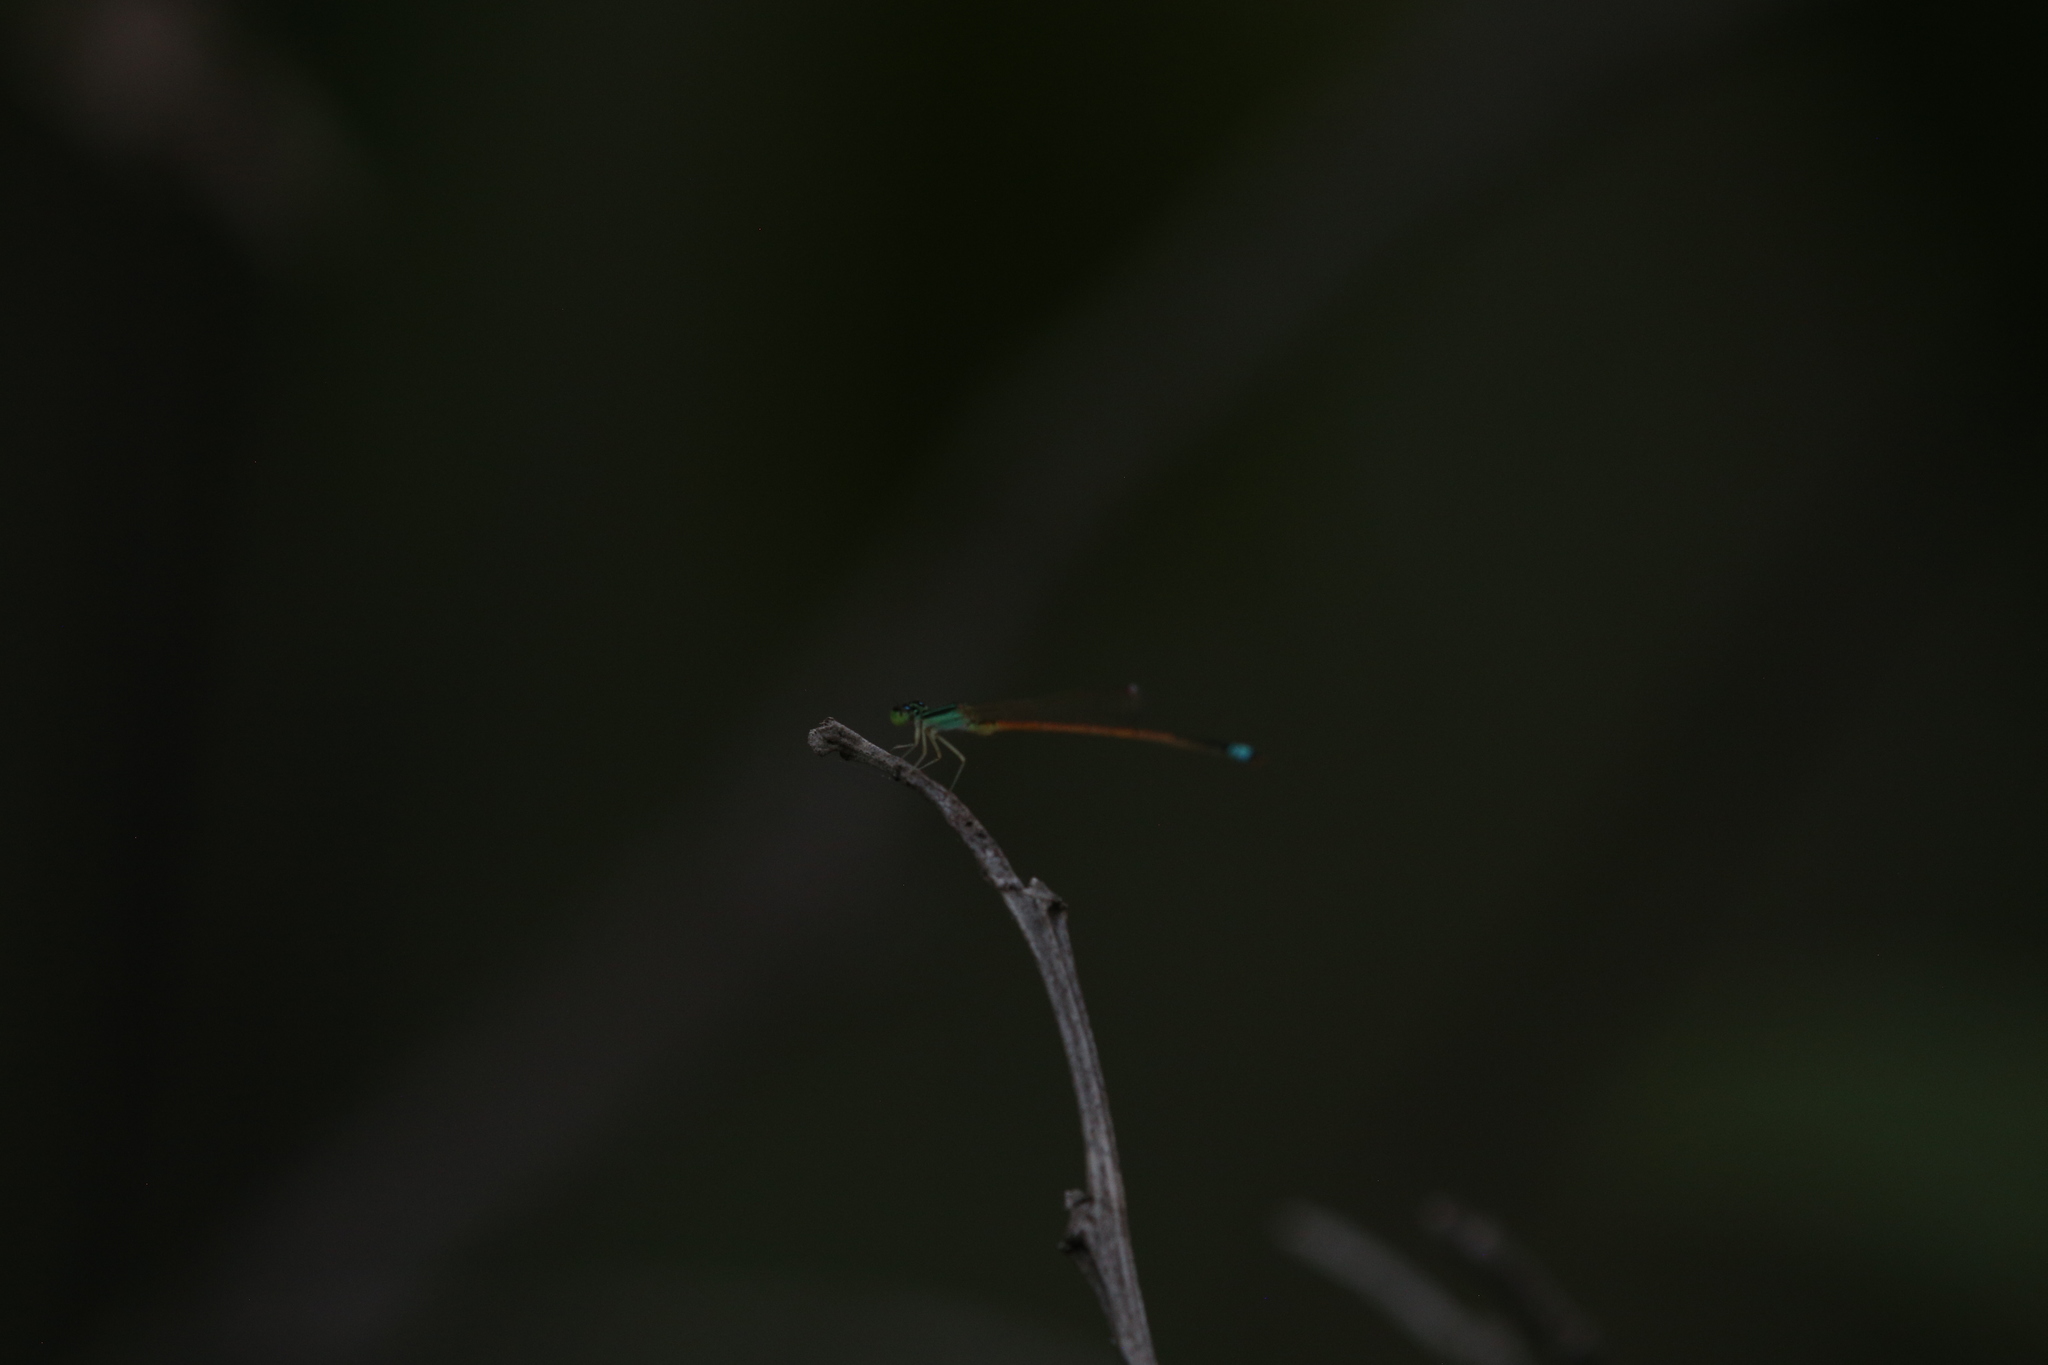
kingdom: Animalia
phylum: Arthropoda
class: Insecta
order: Odonata
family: Coenagrionidae
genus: Ischnura
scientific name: Ischnura aurora
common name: Gossamer damselfly
